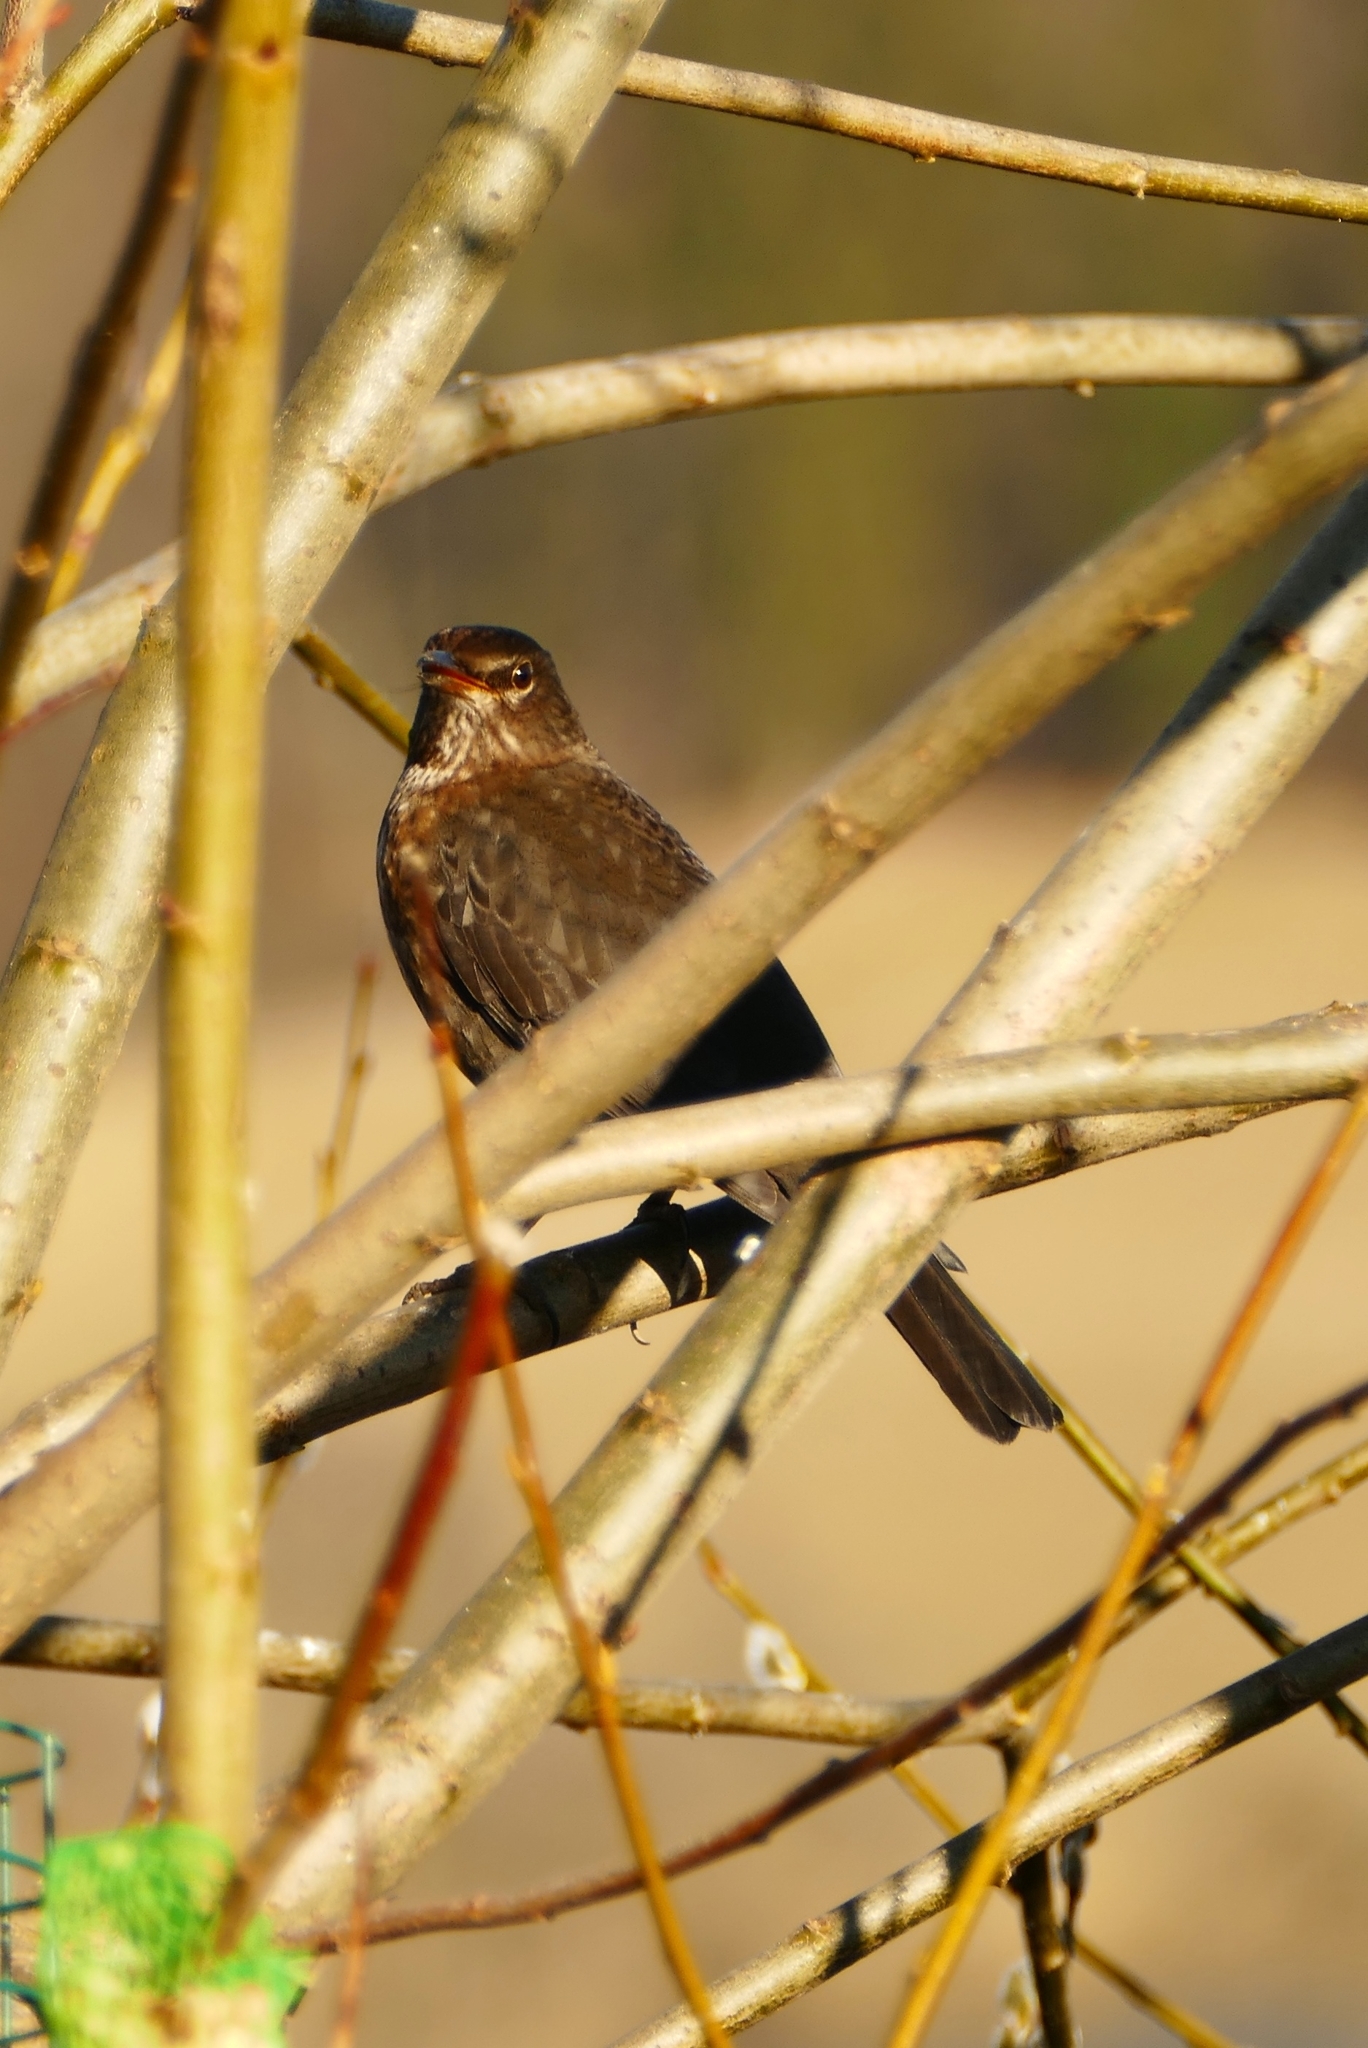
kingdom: Animalia
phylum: Chordata
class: Aves
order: Passeriformes
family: Turdidae
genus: Turdus
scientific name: Turdus merula
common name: Common blackbird
